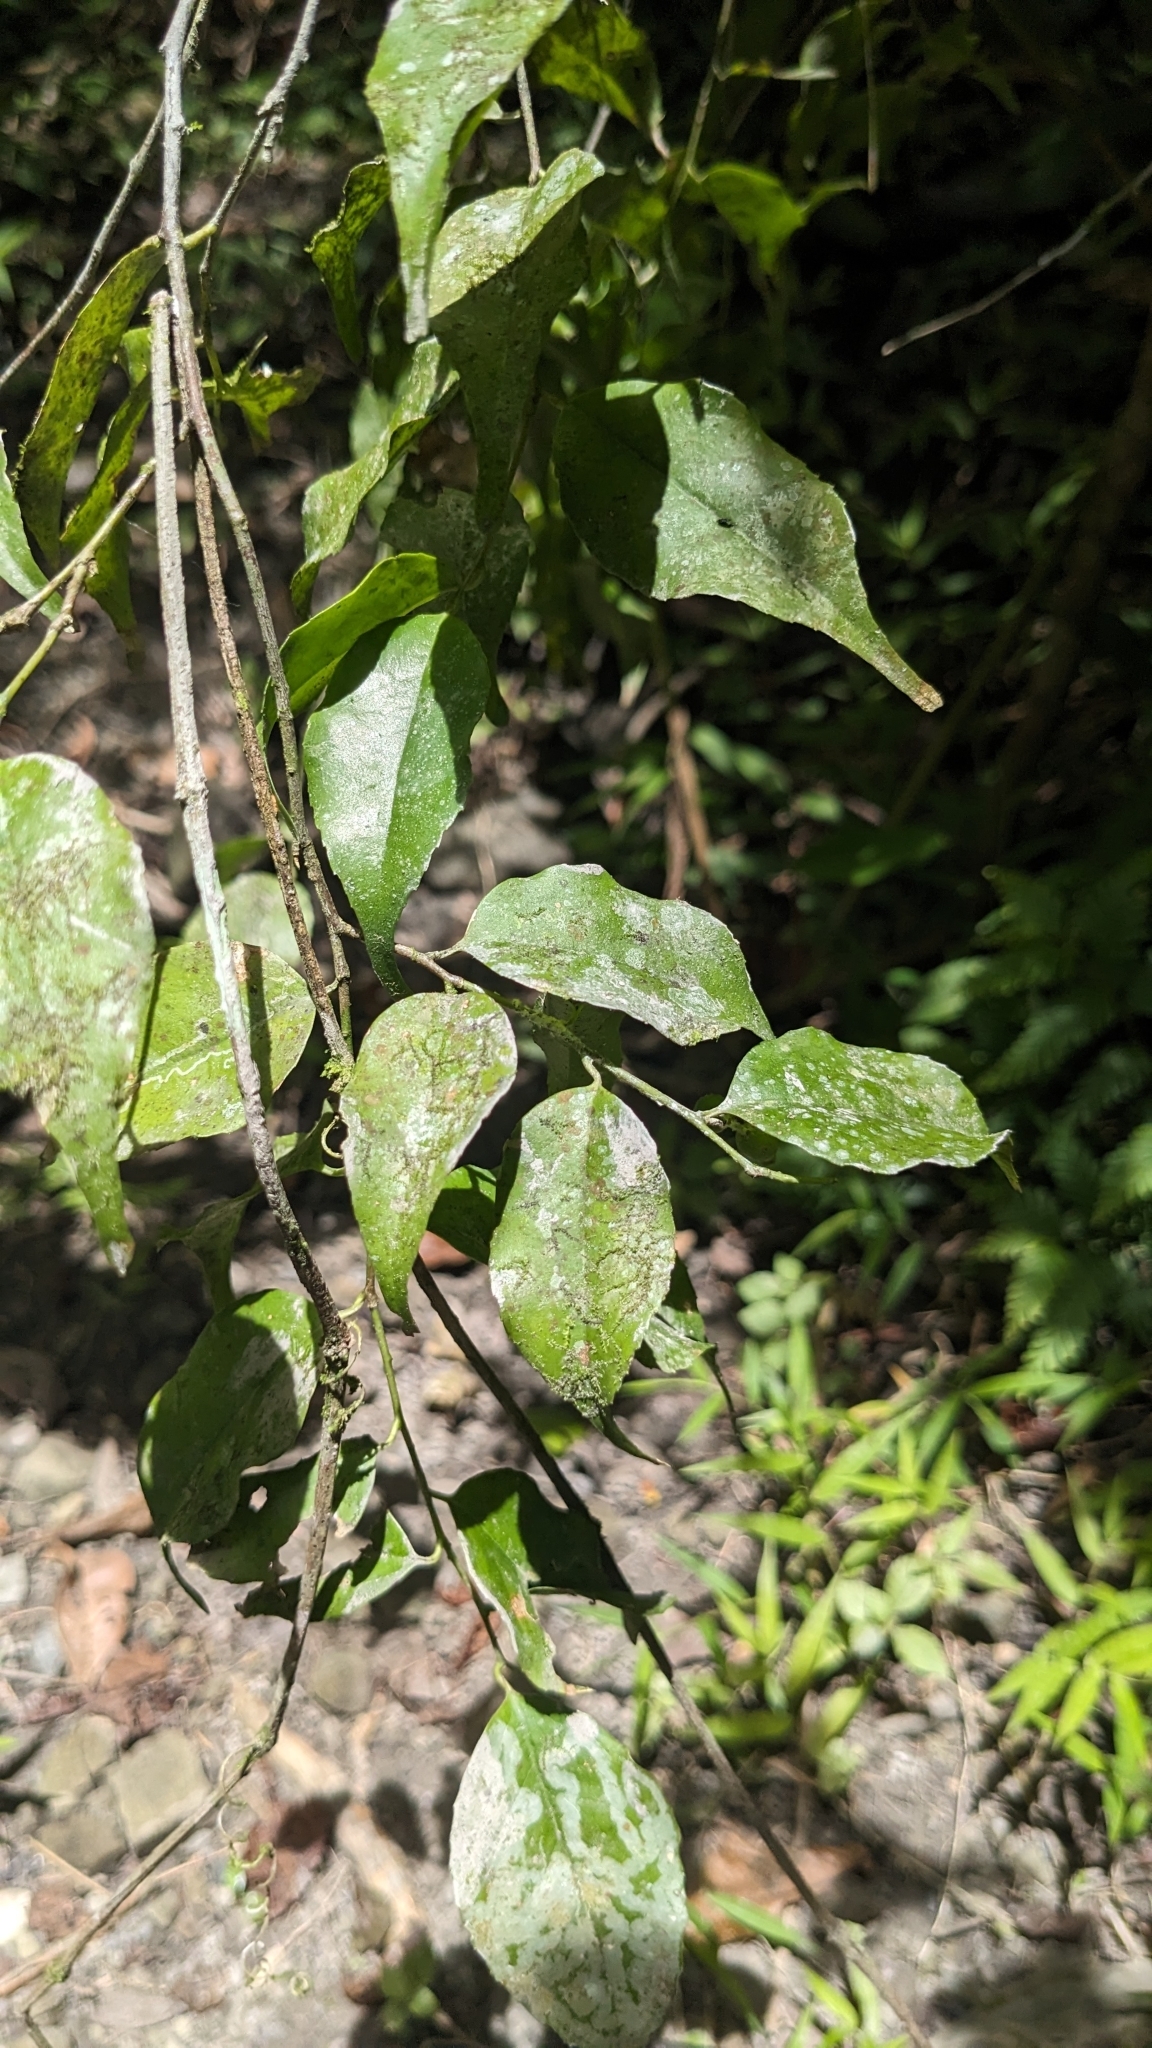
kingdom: Plantae
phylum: Tracheophyta
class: Magnoliopsida
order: Ericales
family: Symplocaceae
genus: Symplocos
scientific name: Symplocos sumuntia
